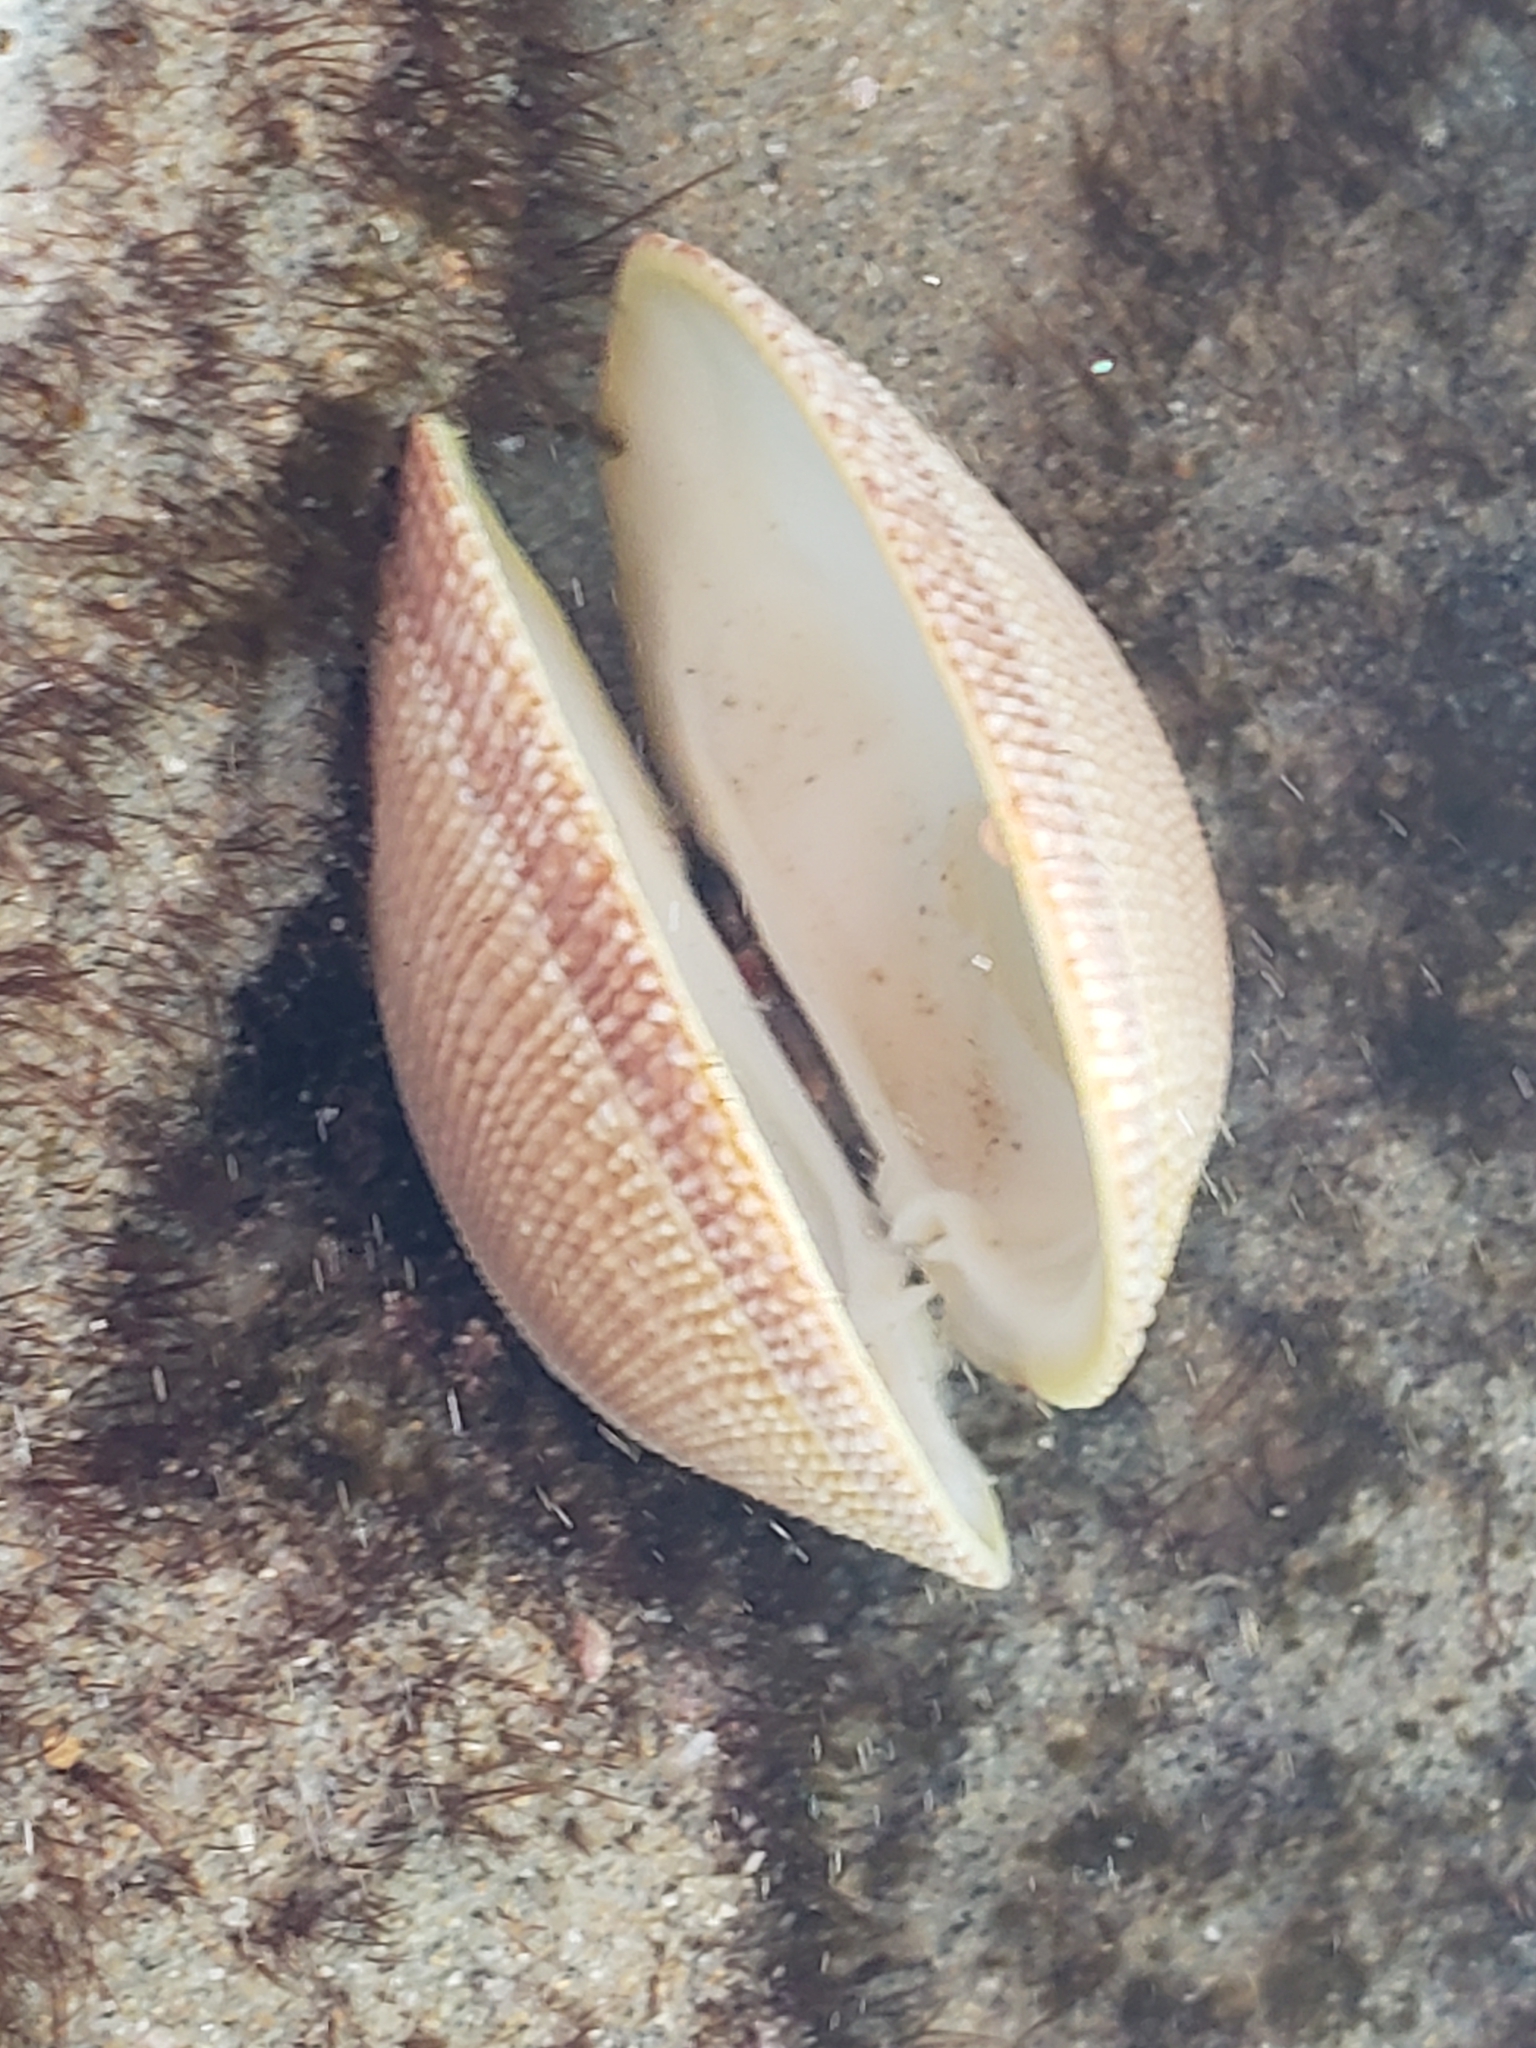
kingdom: Animalia
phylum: Mollusca
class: Bivalvia
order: Venerida
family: Veneridae
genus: Leukoma
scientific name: Leukoma staminea
